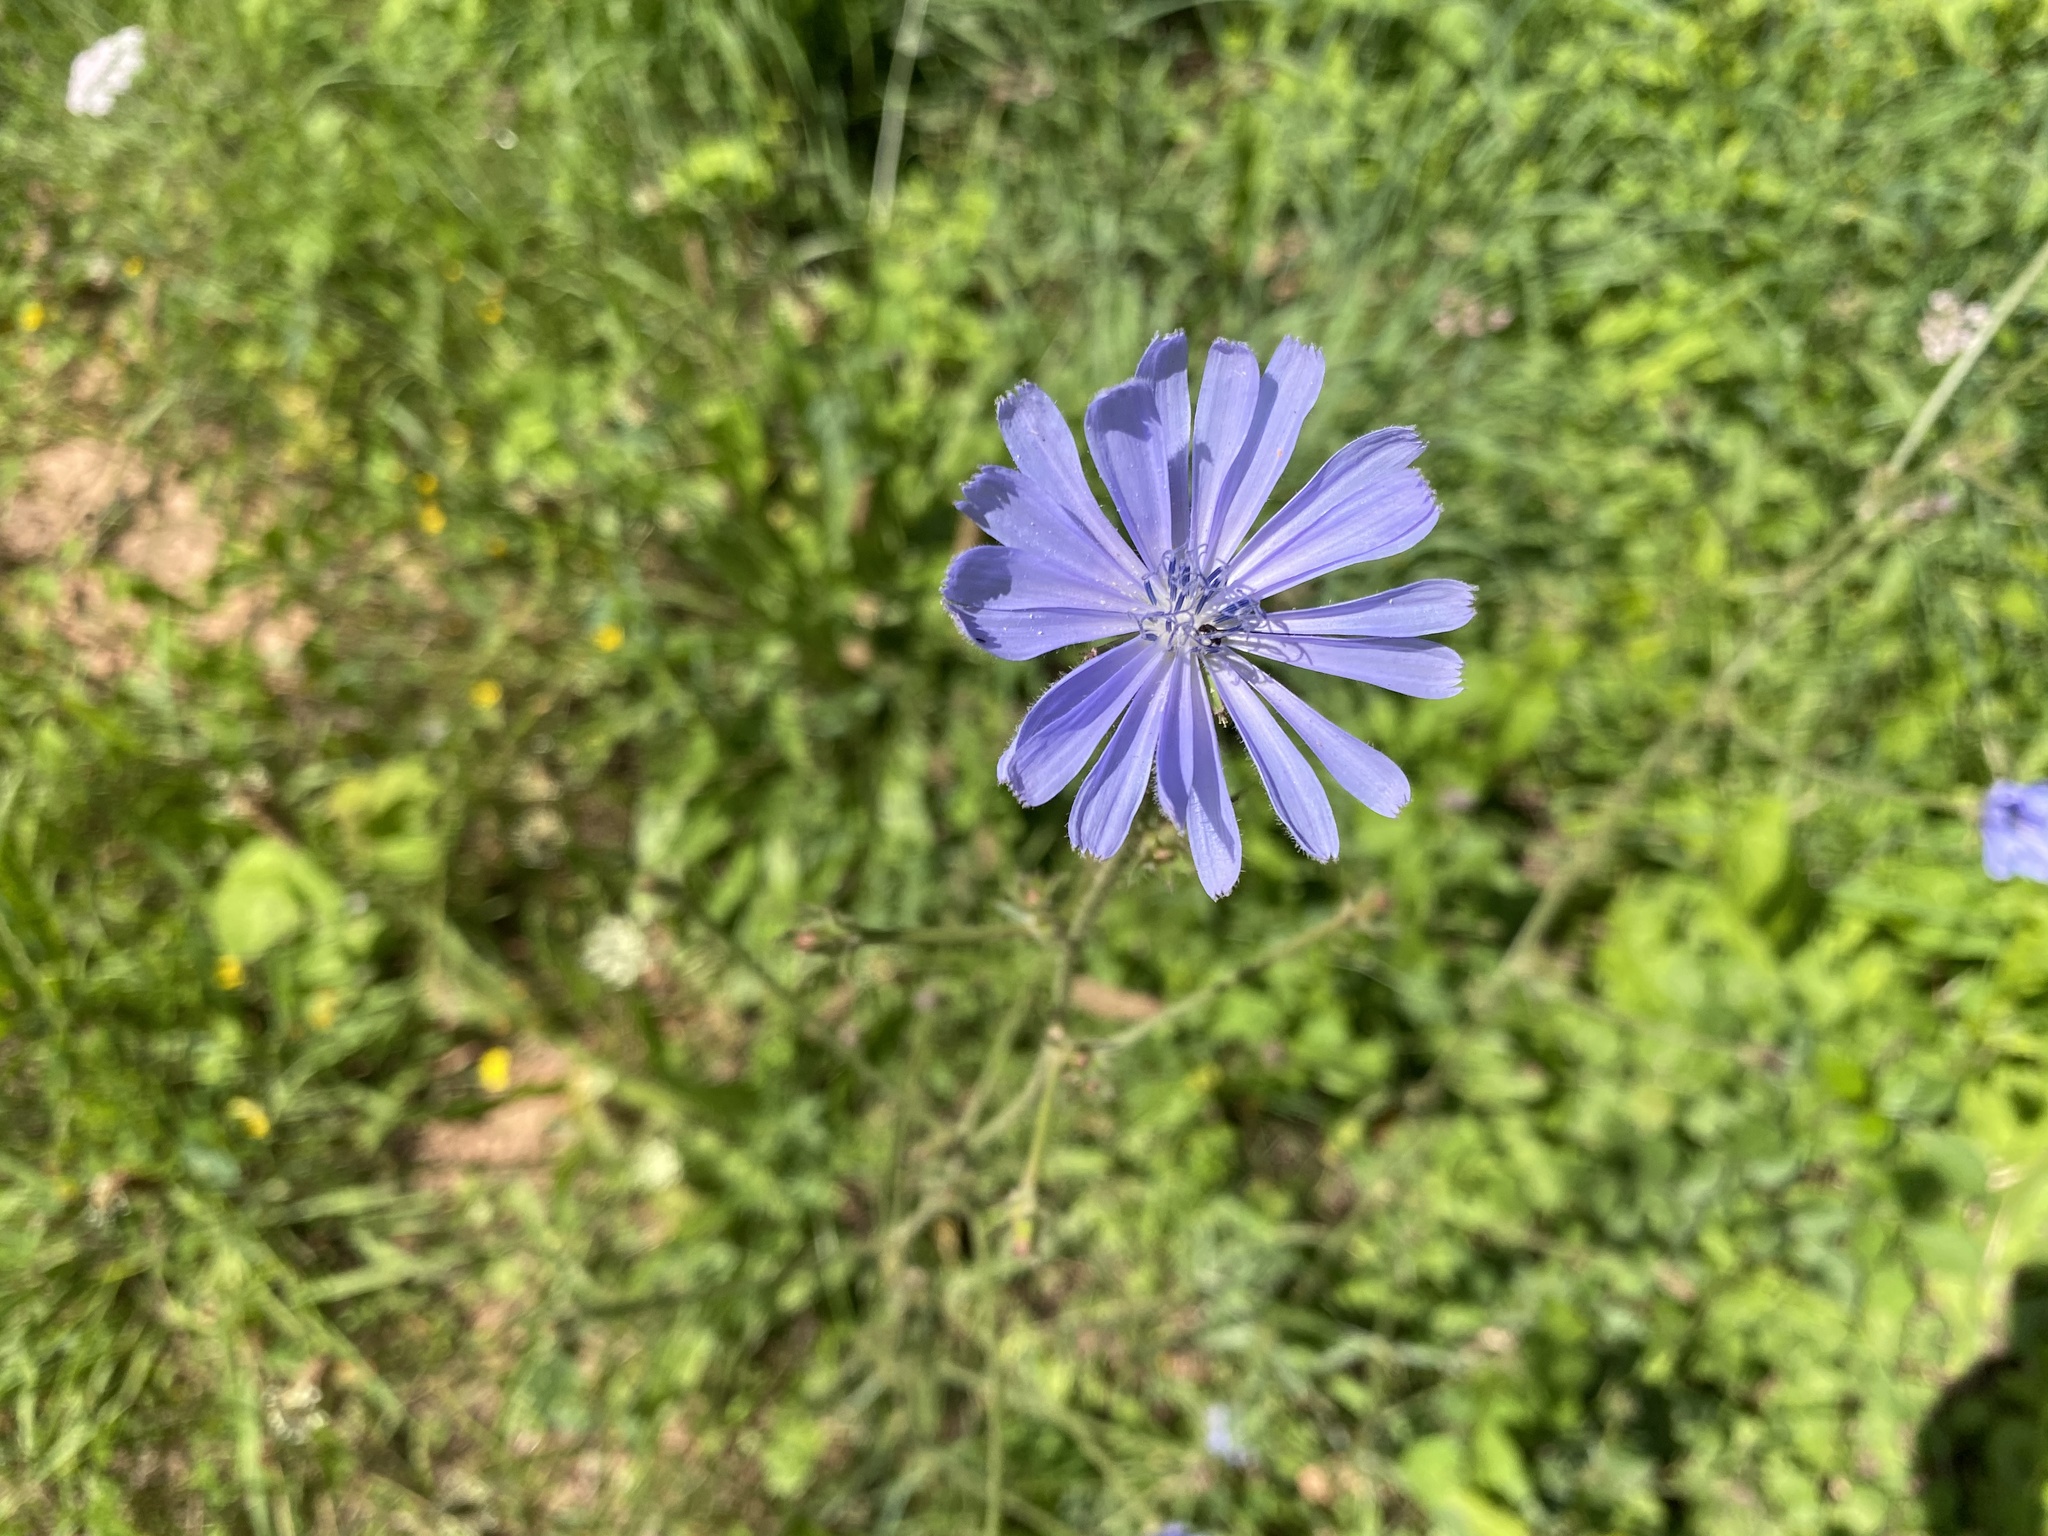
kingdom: Plantae
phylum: Tracheophyta
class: Magnoliopsida
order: Asterales
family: Asteraceae
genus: Cichorium
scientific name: Cichorium intybus
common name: Chicory
